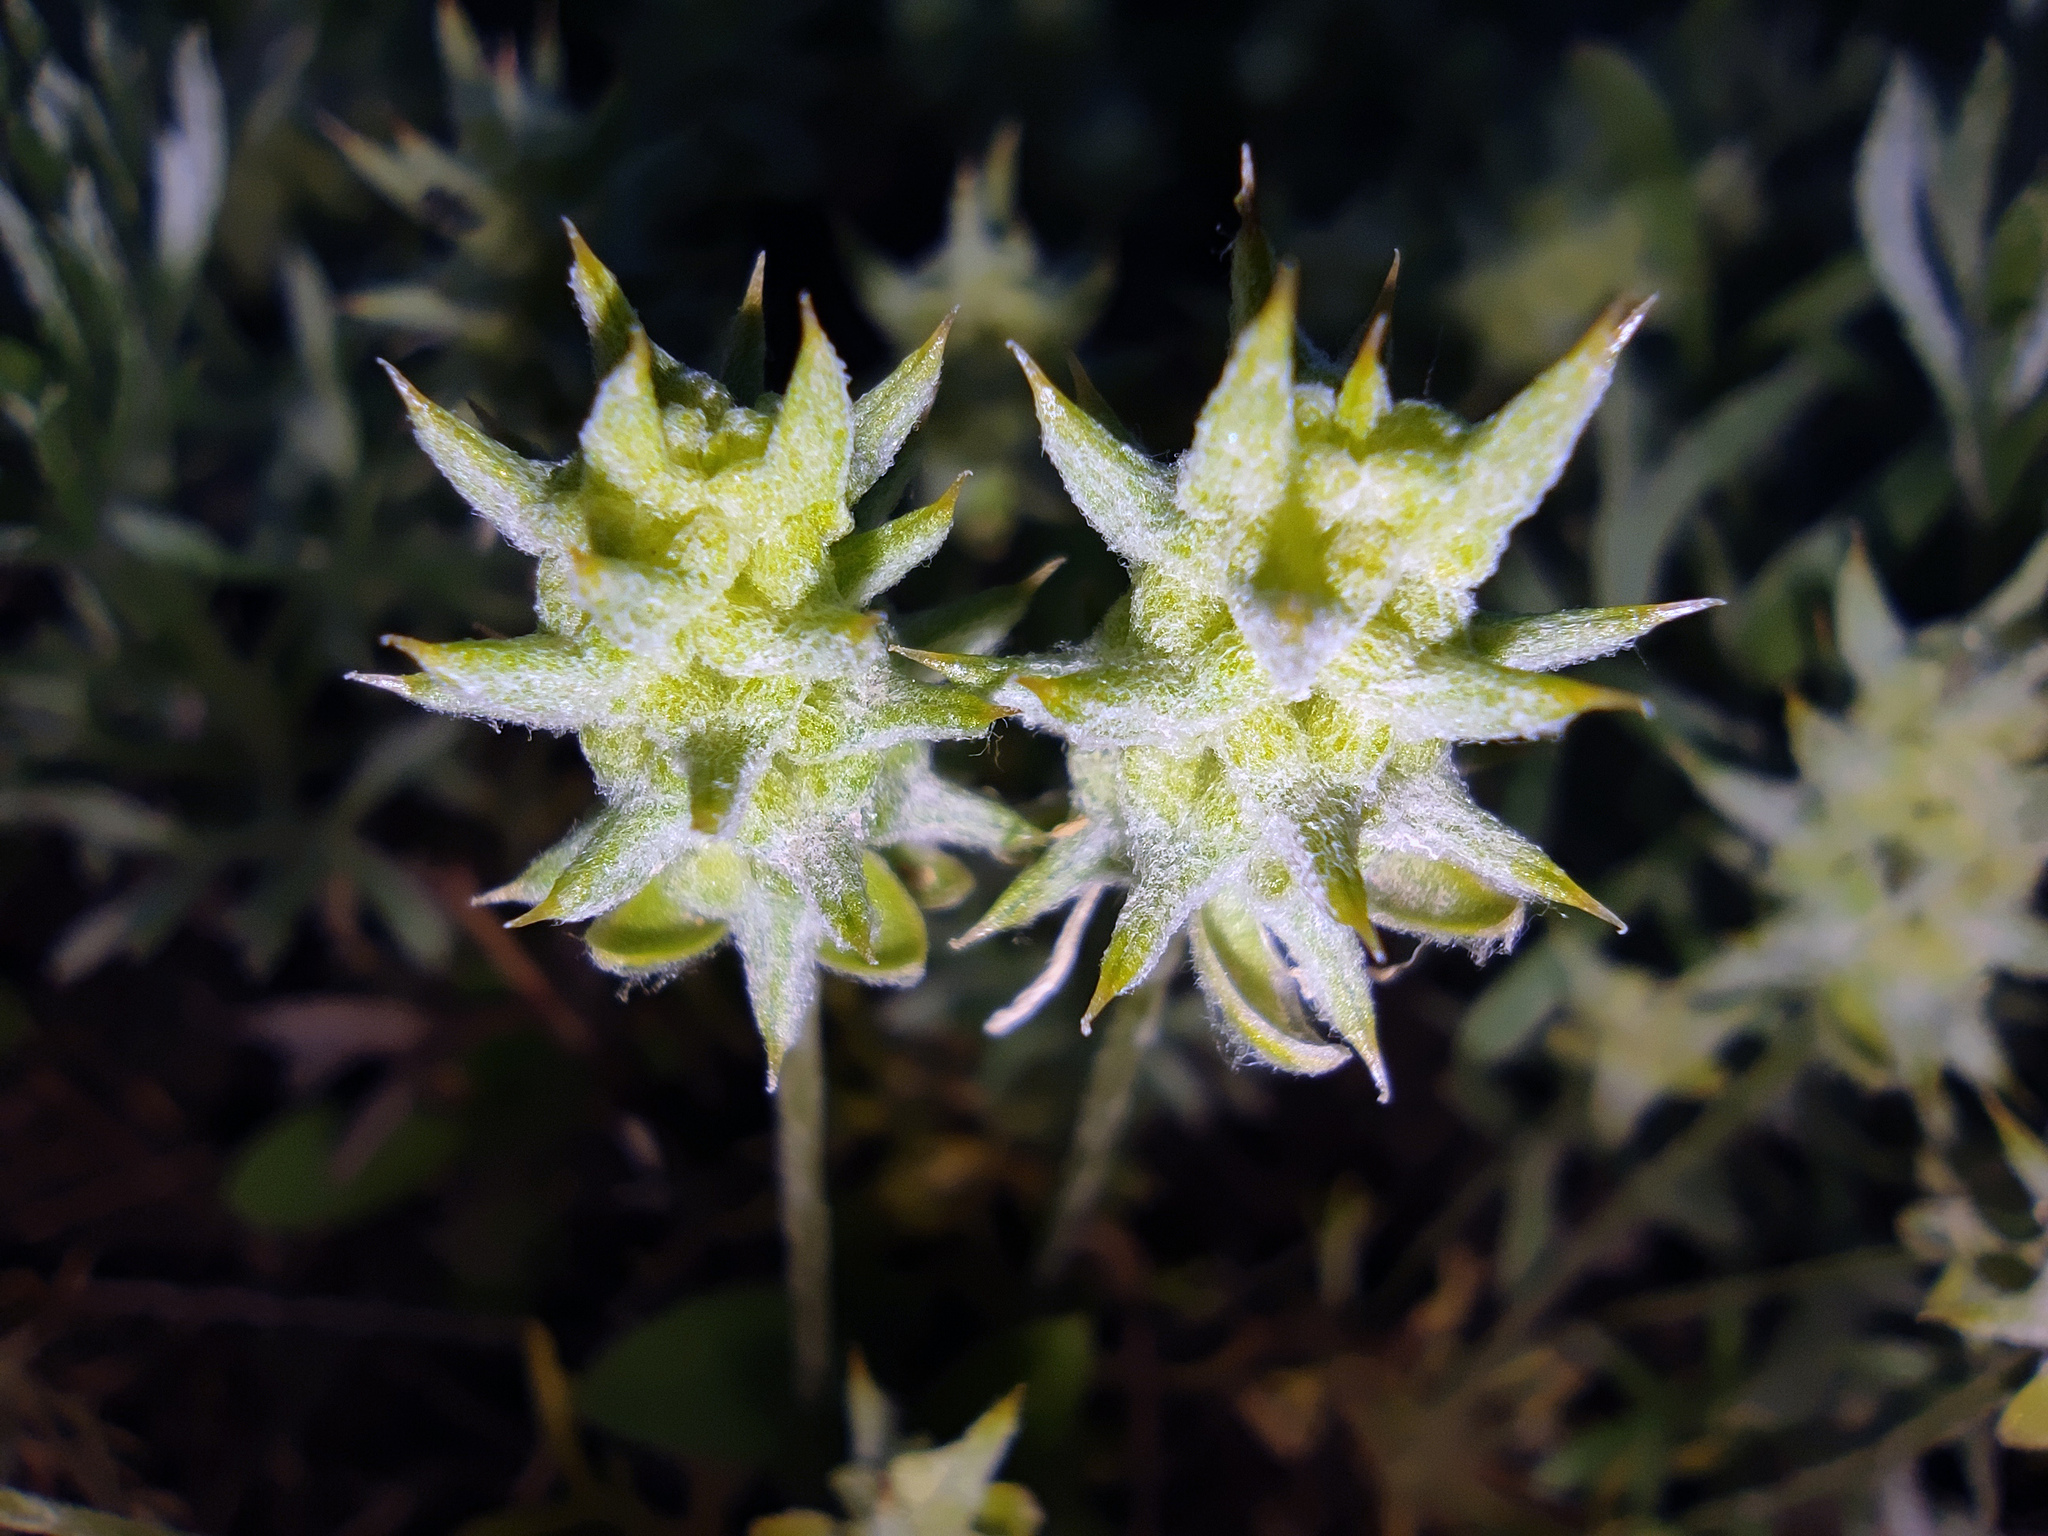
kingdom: Plantae
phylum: Tracheophyta
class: Magnoliopsida
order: Ranunculales
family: Ranunculaceae
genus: Ceratocephala
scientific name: Ceratocephala orthoceras
